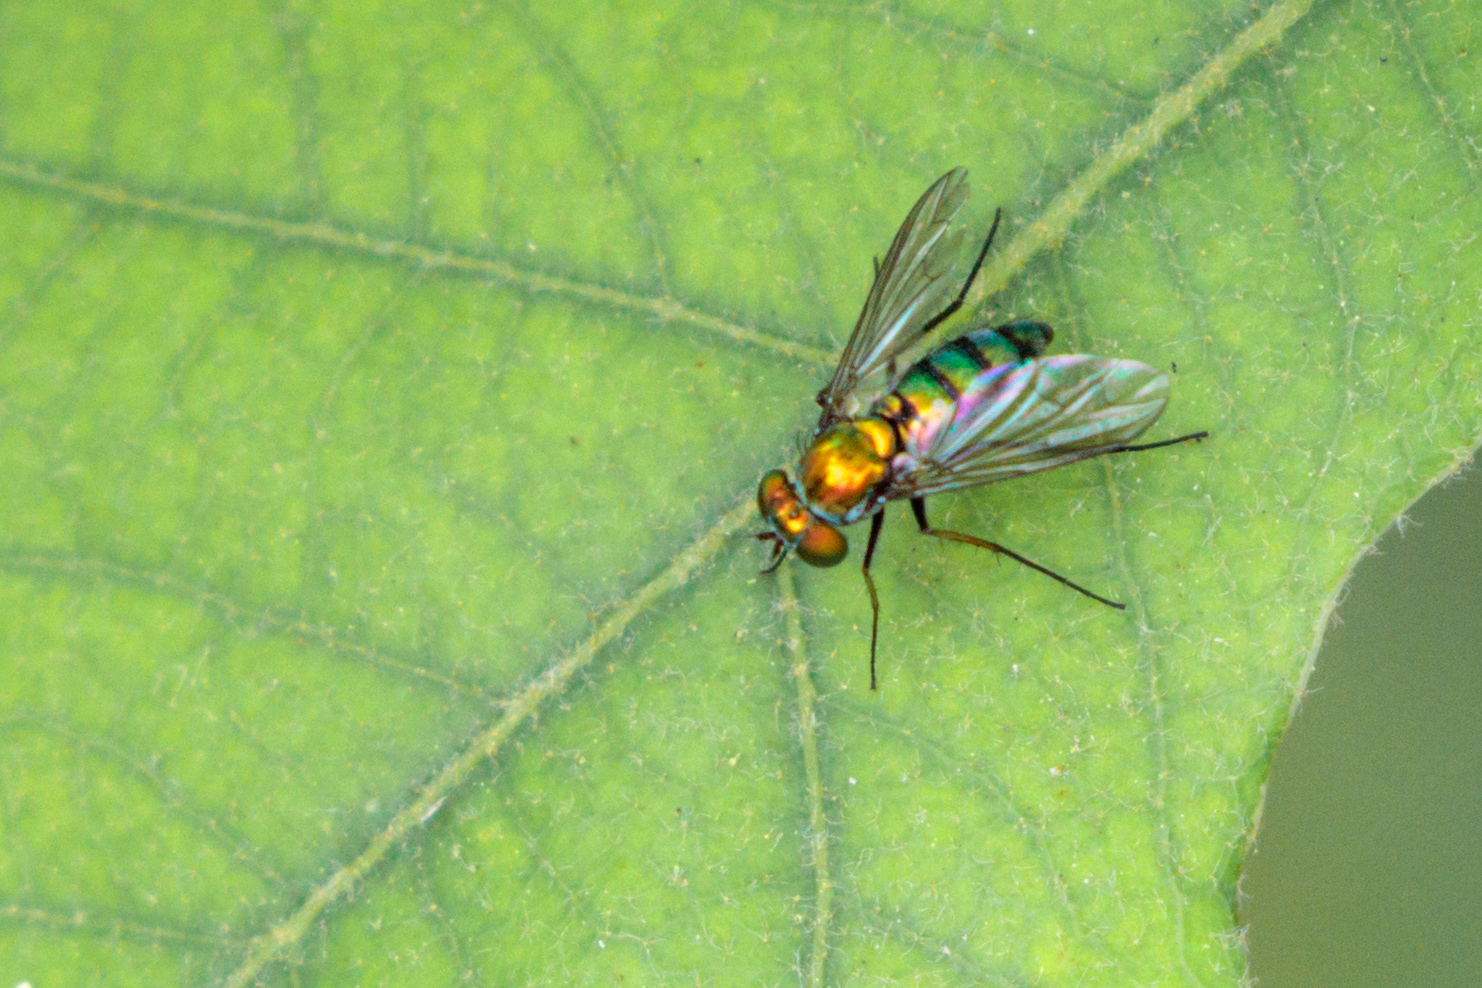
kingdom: Animalia
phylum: Arthropoda
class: Insecta
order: Diptera
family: Dolichopodidae
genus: Condylostylus
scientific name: Condylostylus longicornis
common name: Long-legged fly
